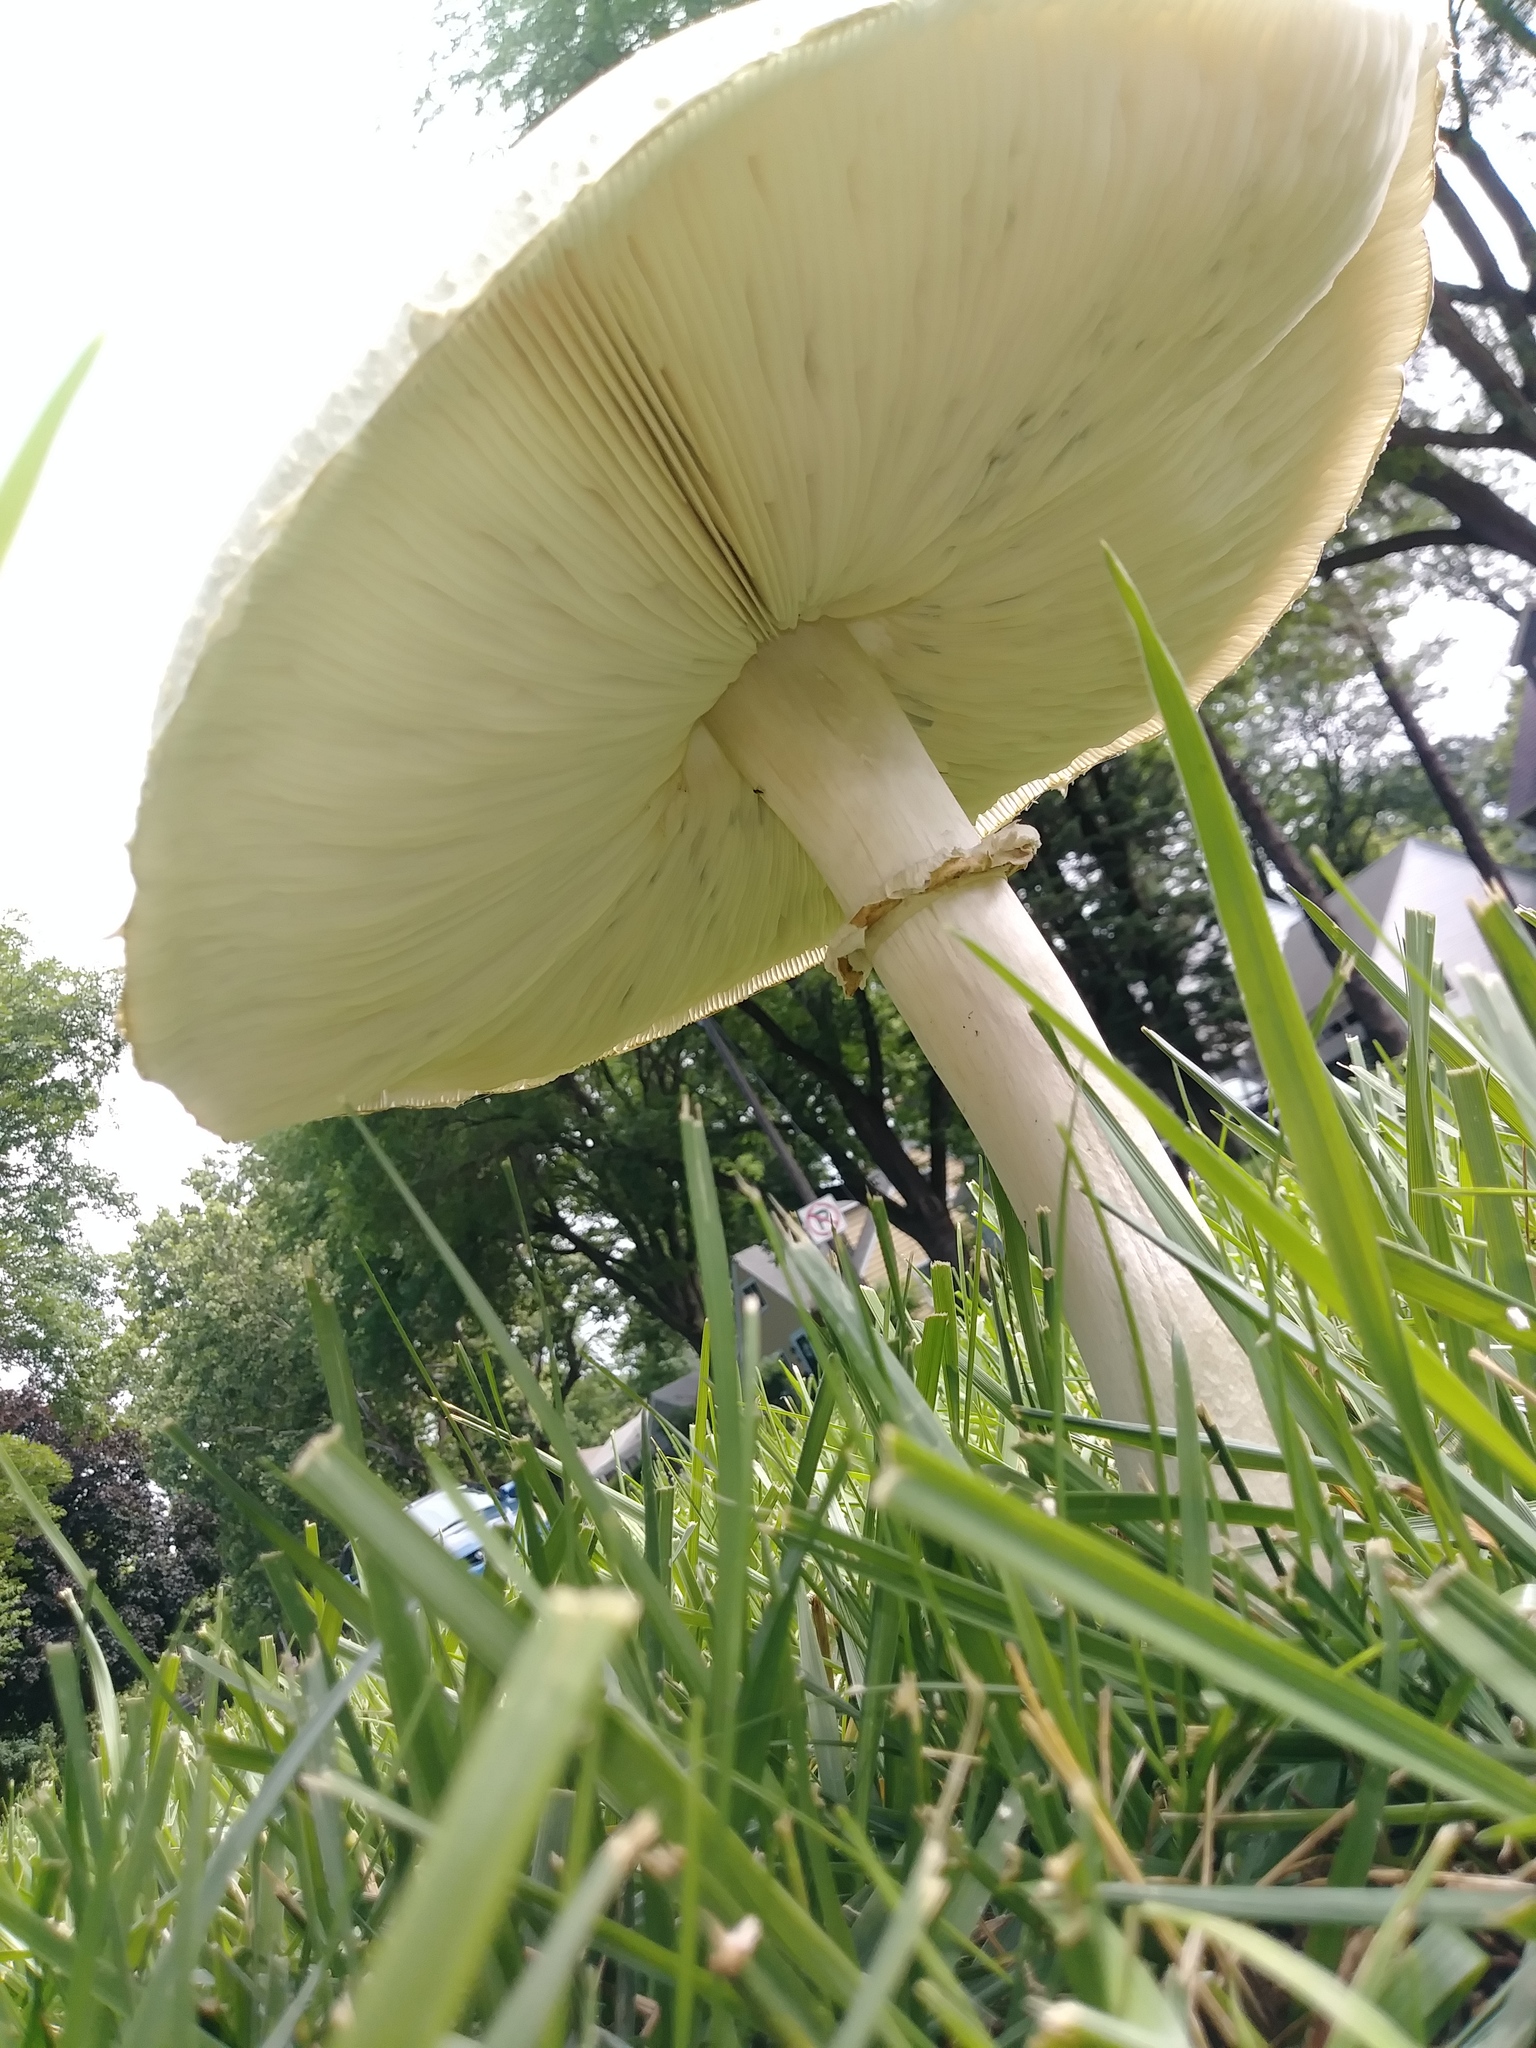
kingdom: Fungi
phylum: Basidiomycota
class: Agaricomycetes
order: Agaricales
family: Agaricaceae
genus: Chlorophyllum
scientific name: Chlorophyllum molybdites
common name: False parasol
